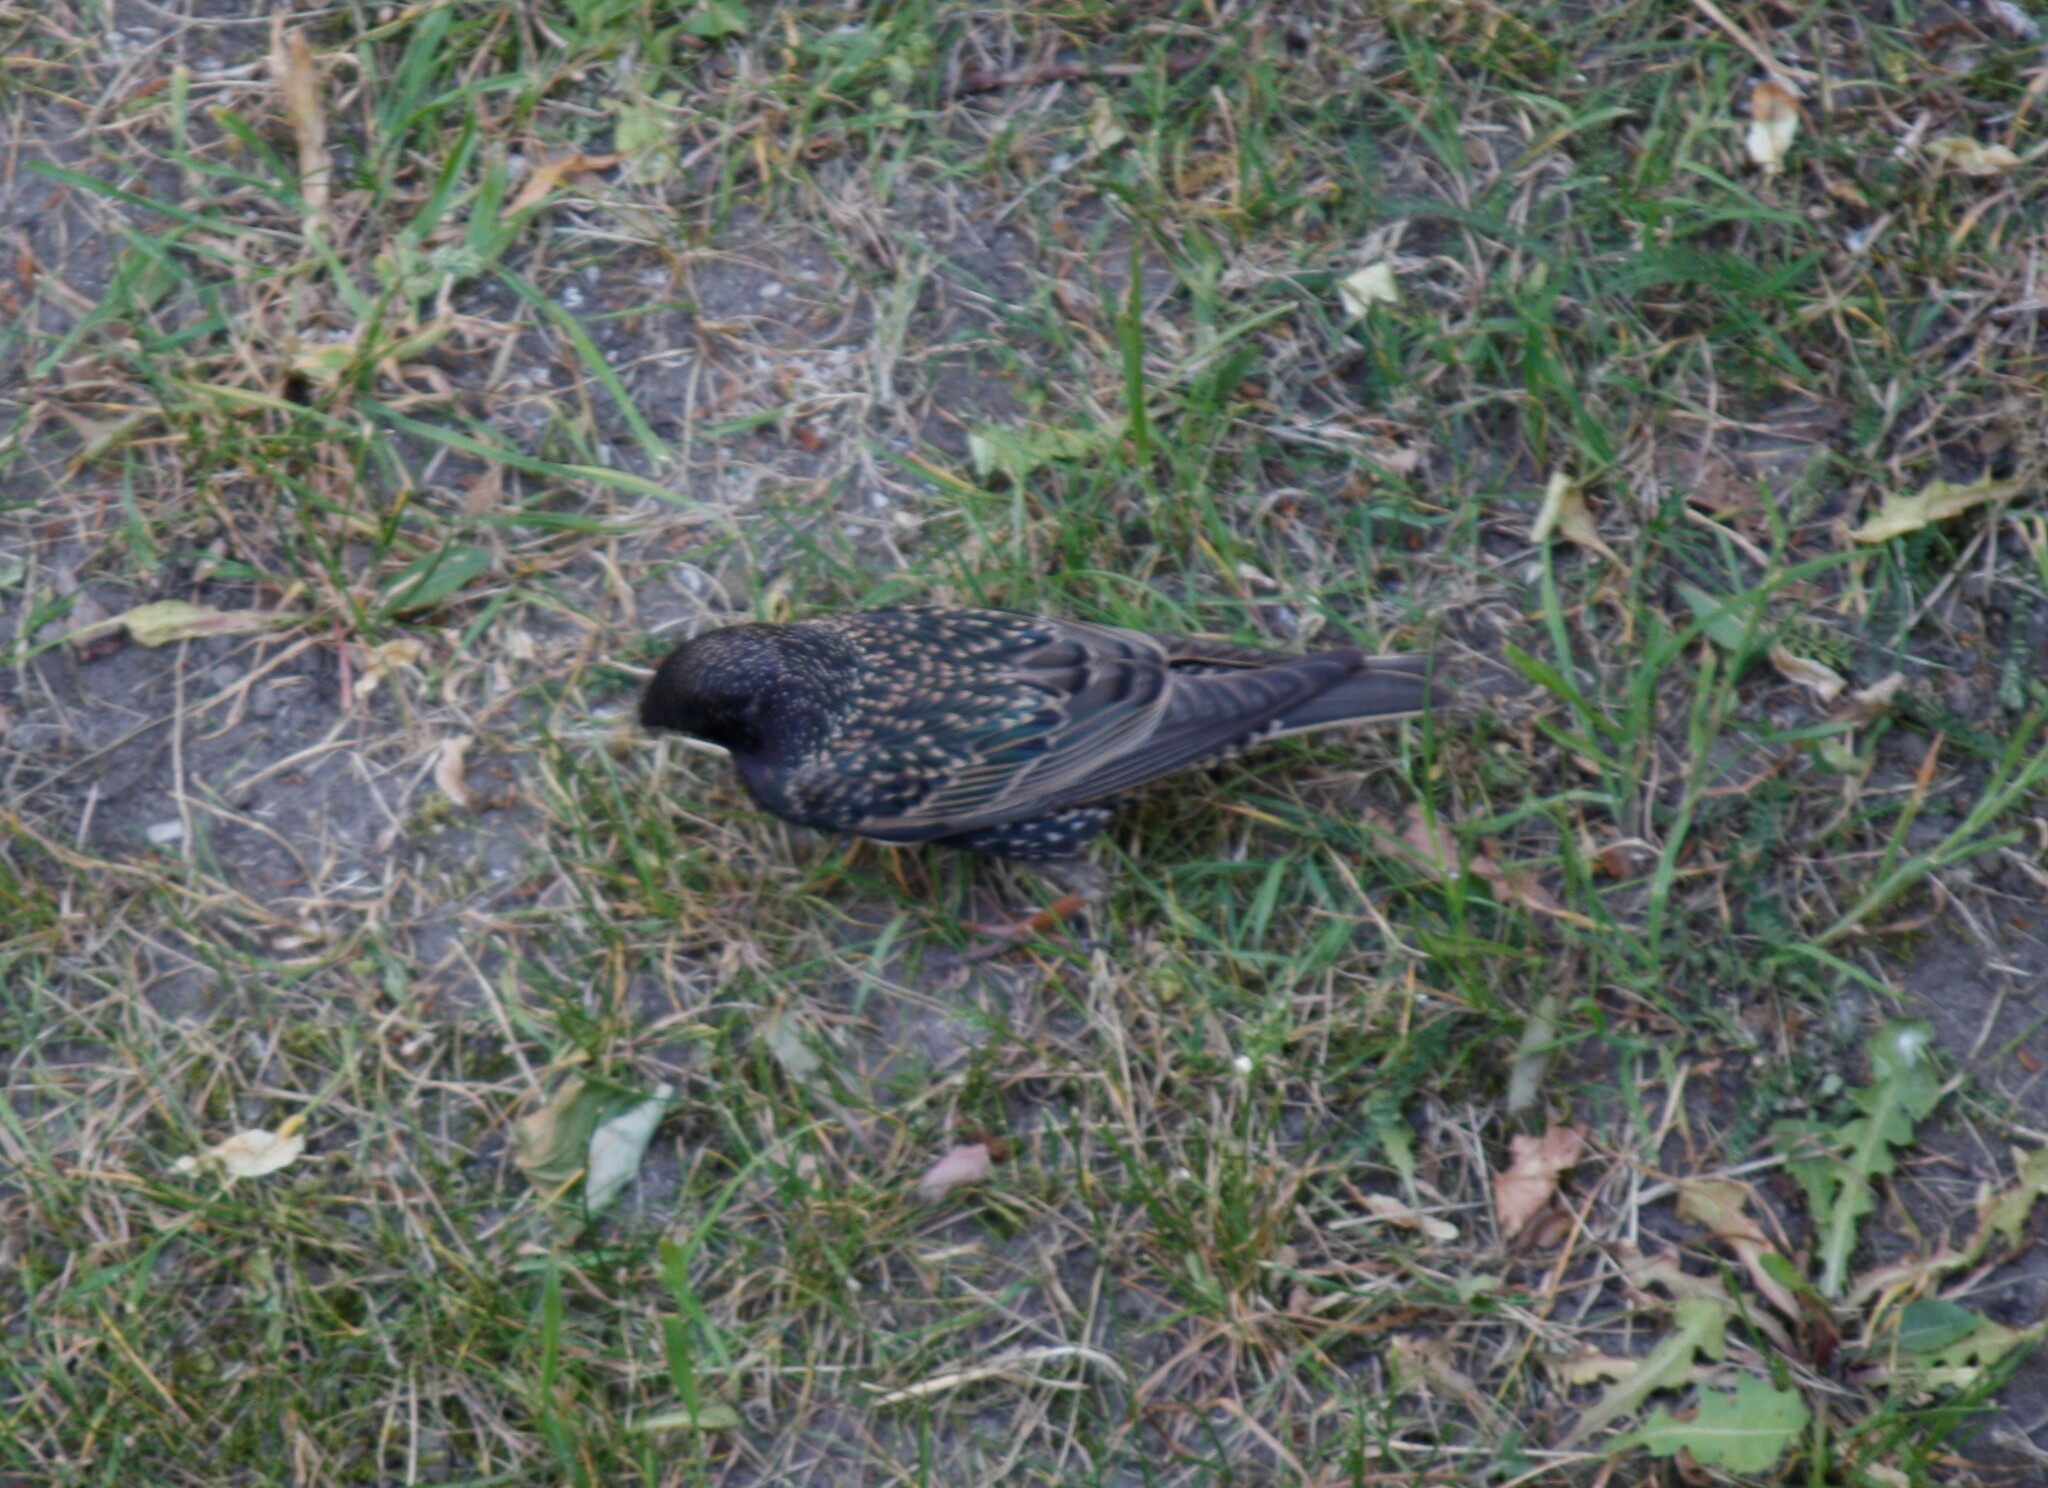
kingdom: Animalia
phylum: Chordata
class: Aves
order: Passeriformes
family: Sturnidae
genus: Sturnus
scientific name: Sturnus vulgaris
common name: Common starling
